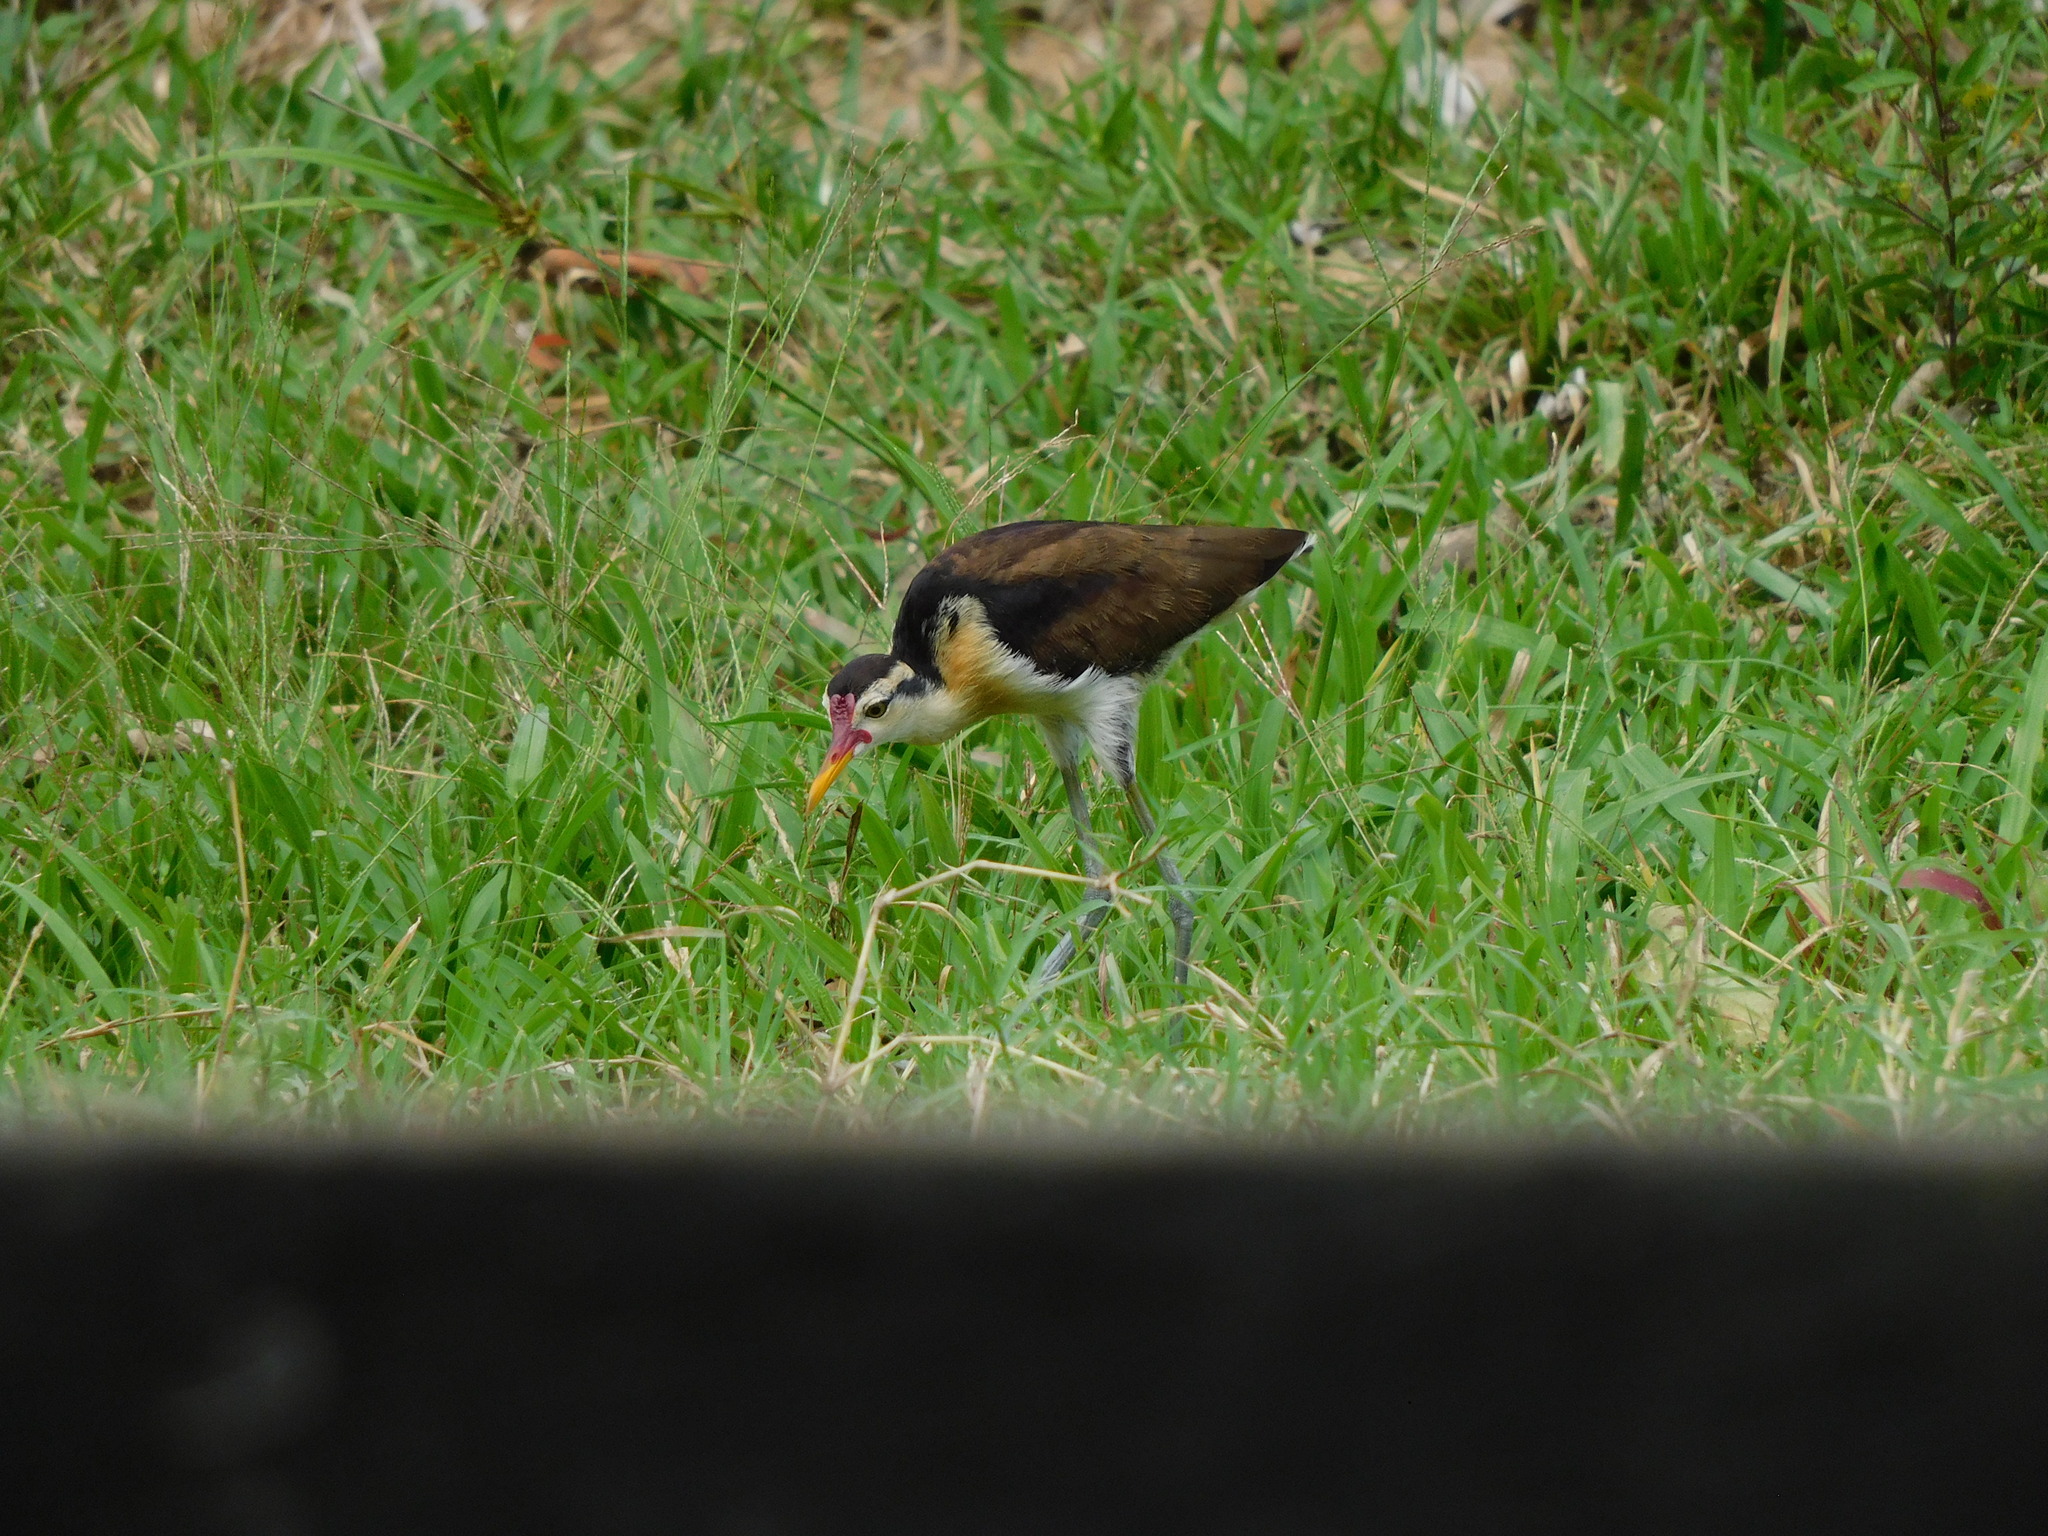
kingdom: Animalia
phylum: Chordata
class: Aves
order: Charadriiformes
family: Jacanidae
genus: Jacana
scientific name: Jacana jacana
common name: Wattled jacana
